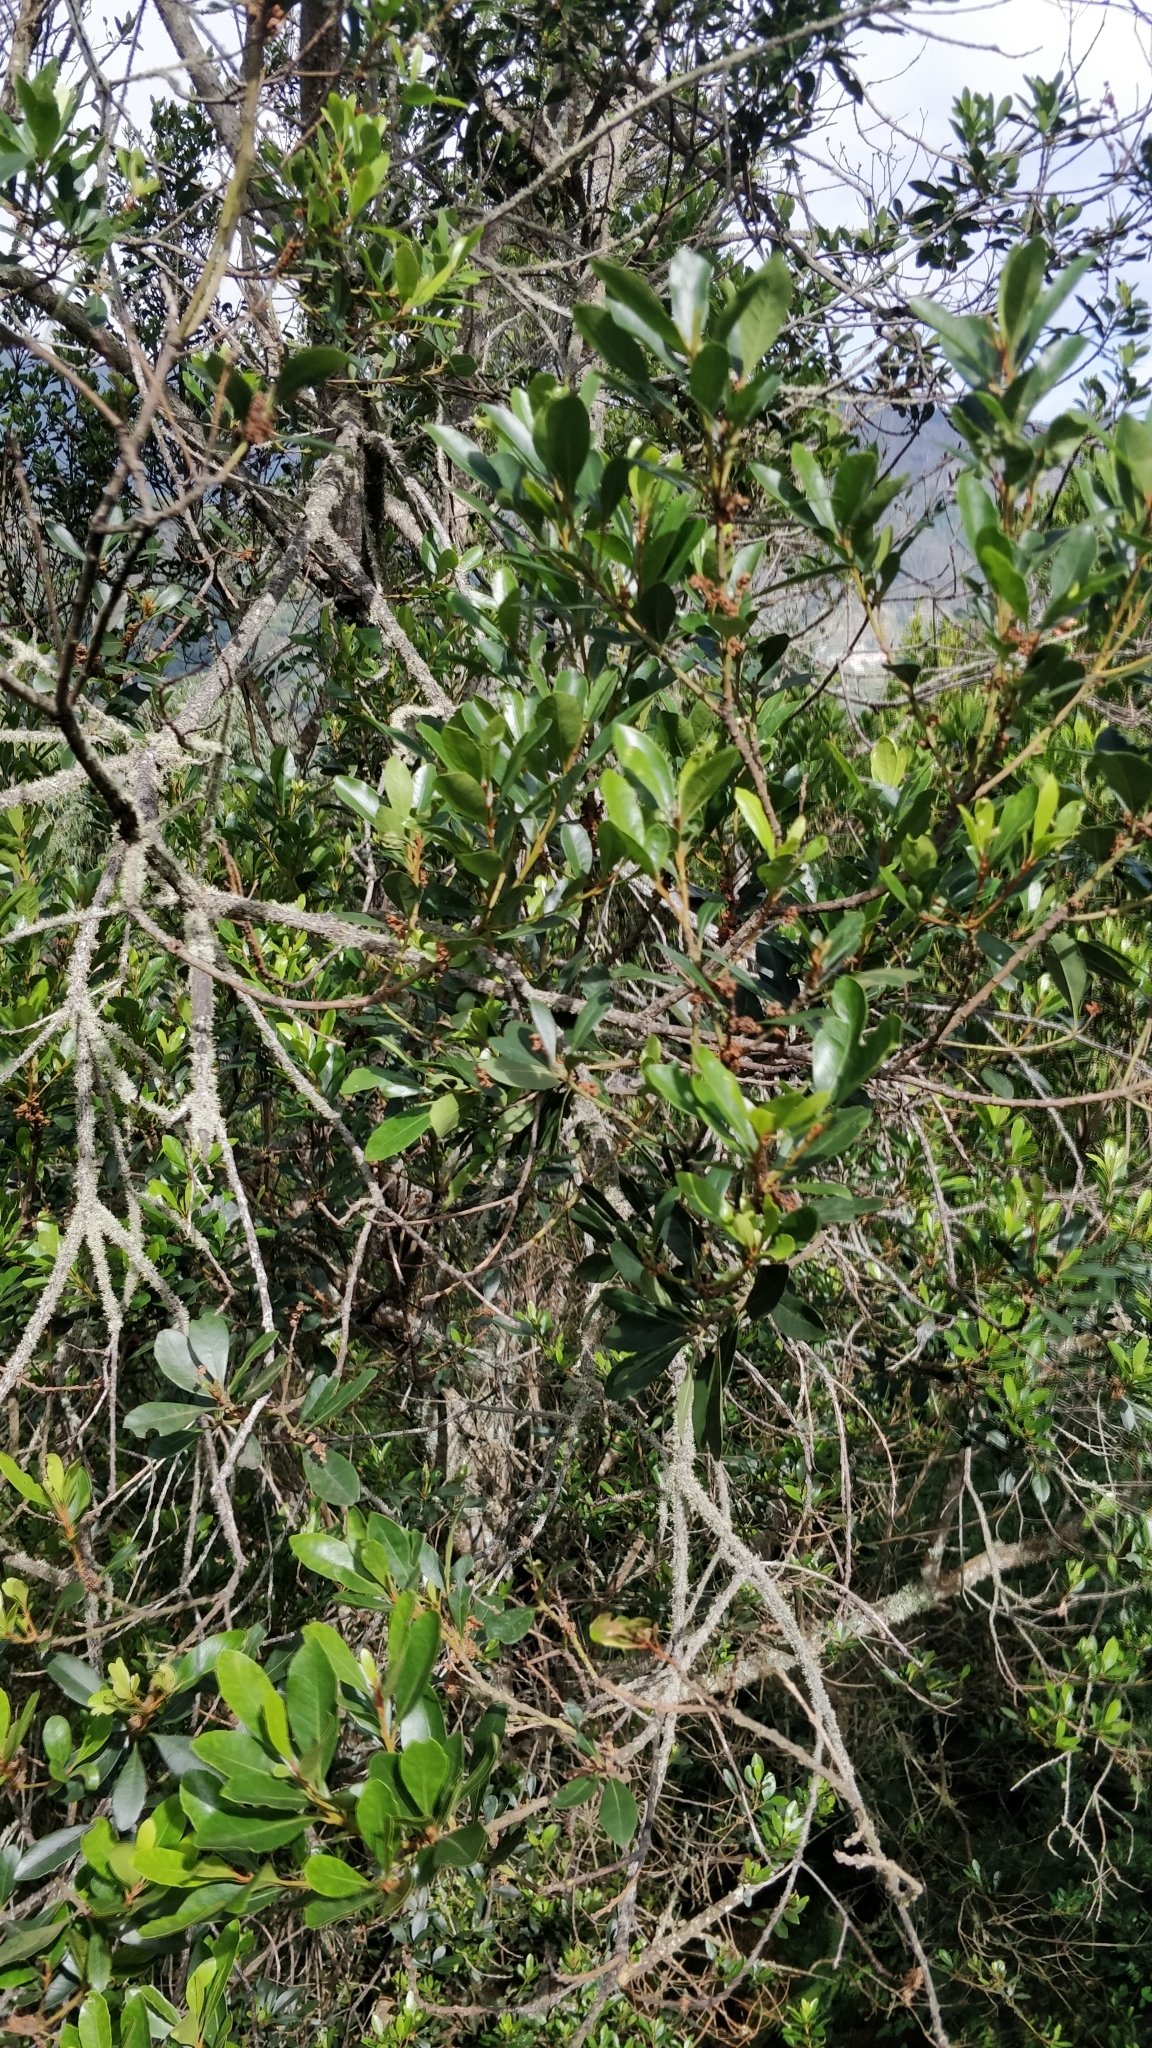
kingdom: Plantae
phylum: Tracheophyta
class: Magnoliopsida
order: Fagales
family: Myricaceae
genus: Morella
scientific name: Morella faya
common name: Firetree
